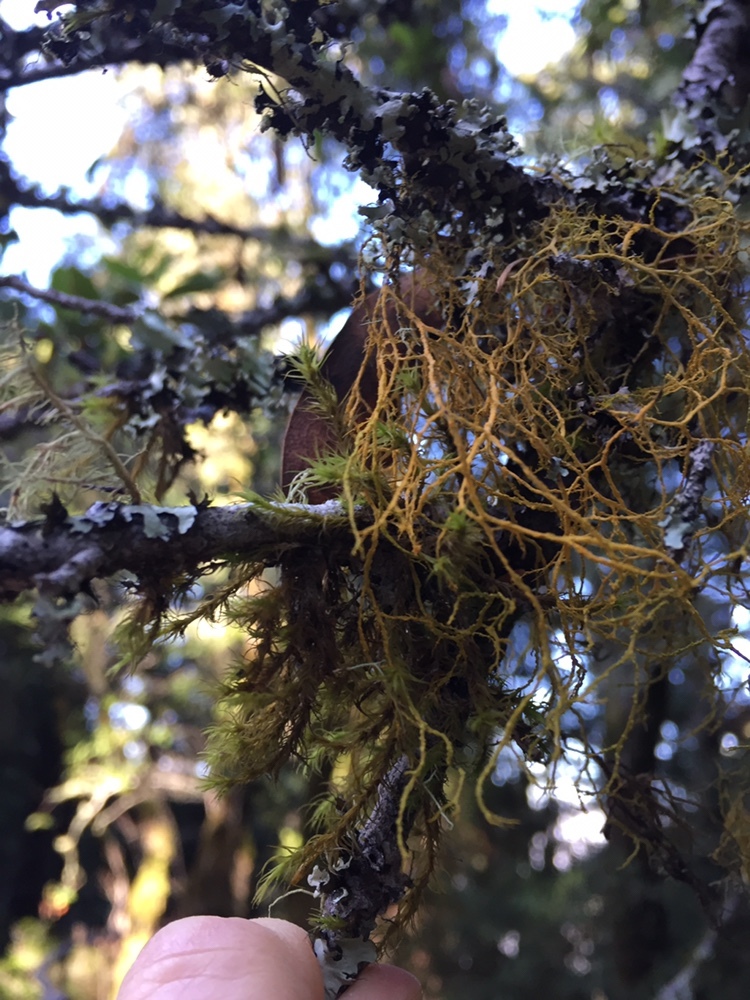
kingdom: Fungi
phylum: Ascomycota
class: Lecanoromycetes
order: Teloschistales
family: Teloschistaceae
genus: Teloschistes
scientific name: Teloschistes flavicans
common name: Golden hair-lichen
